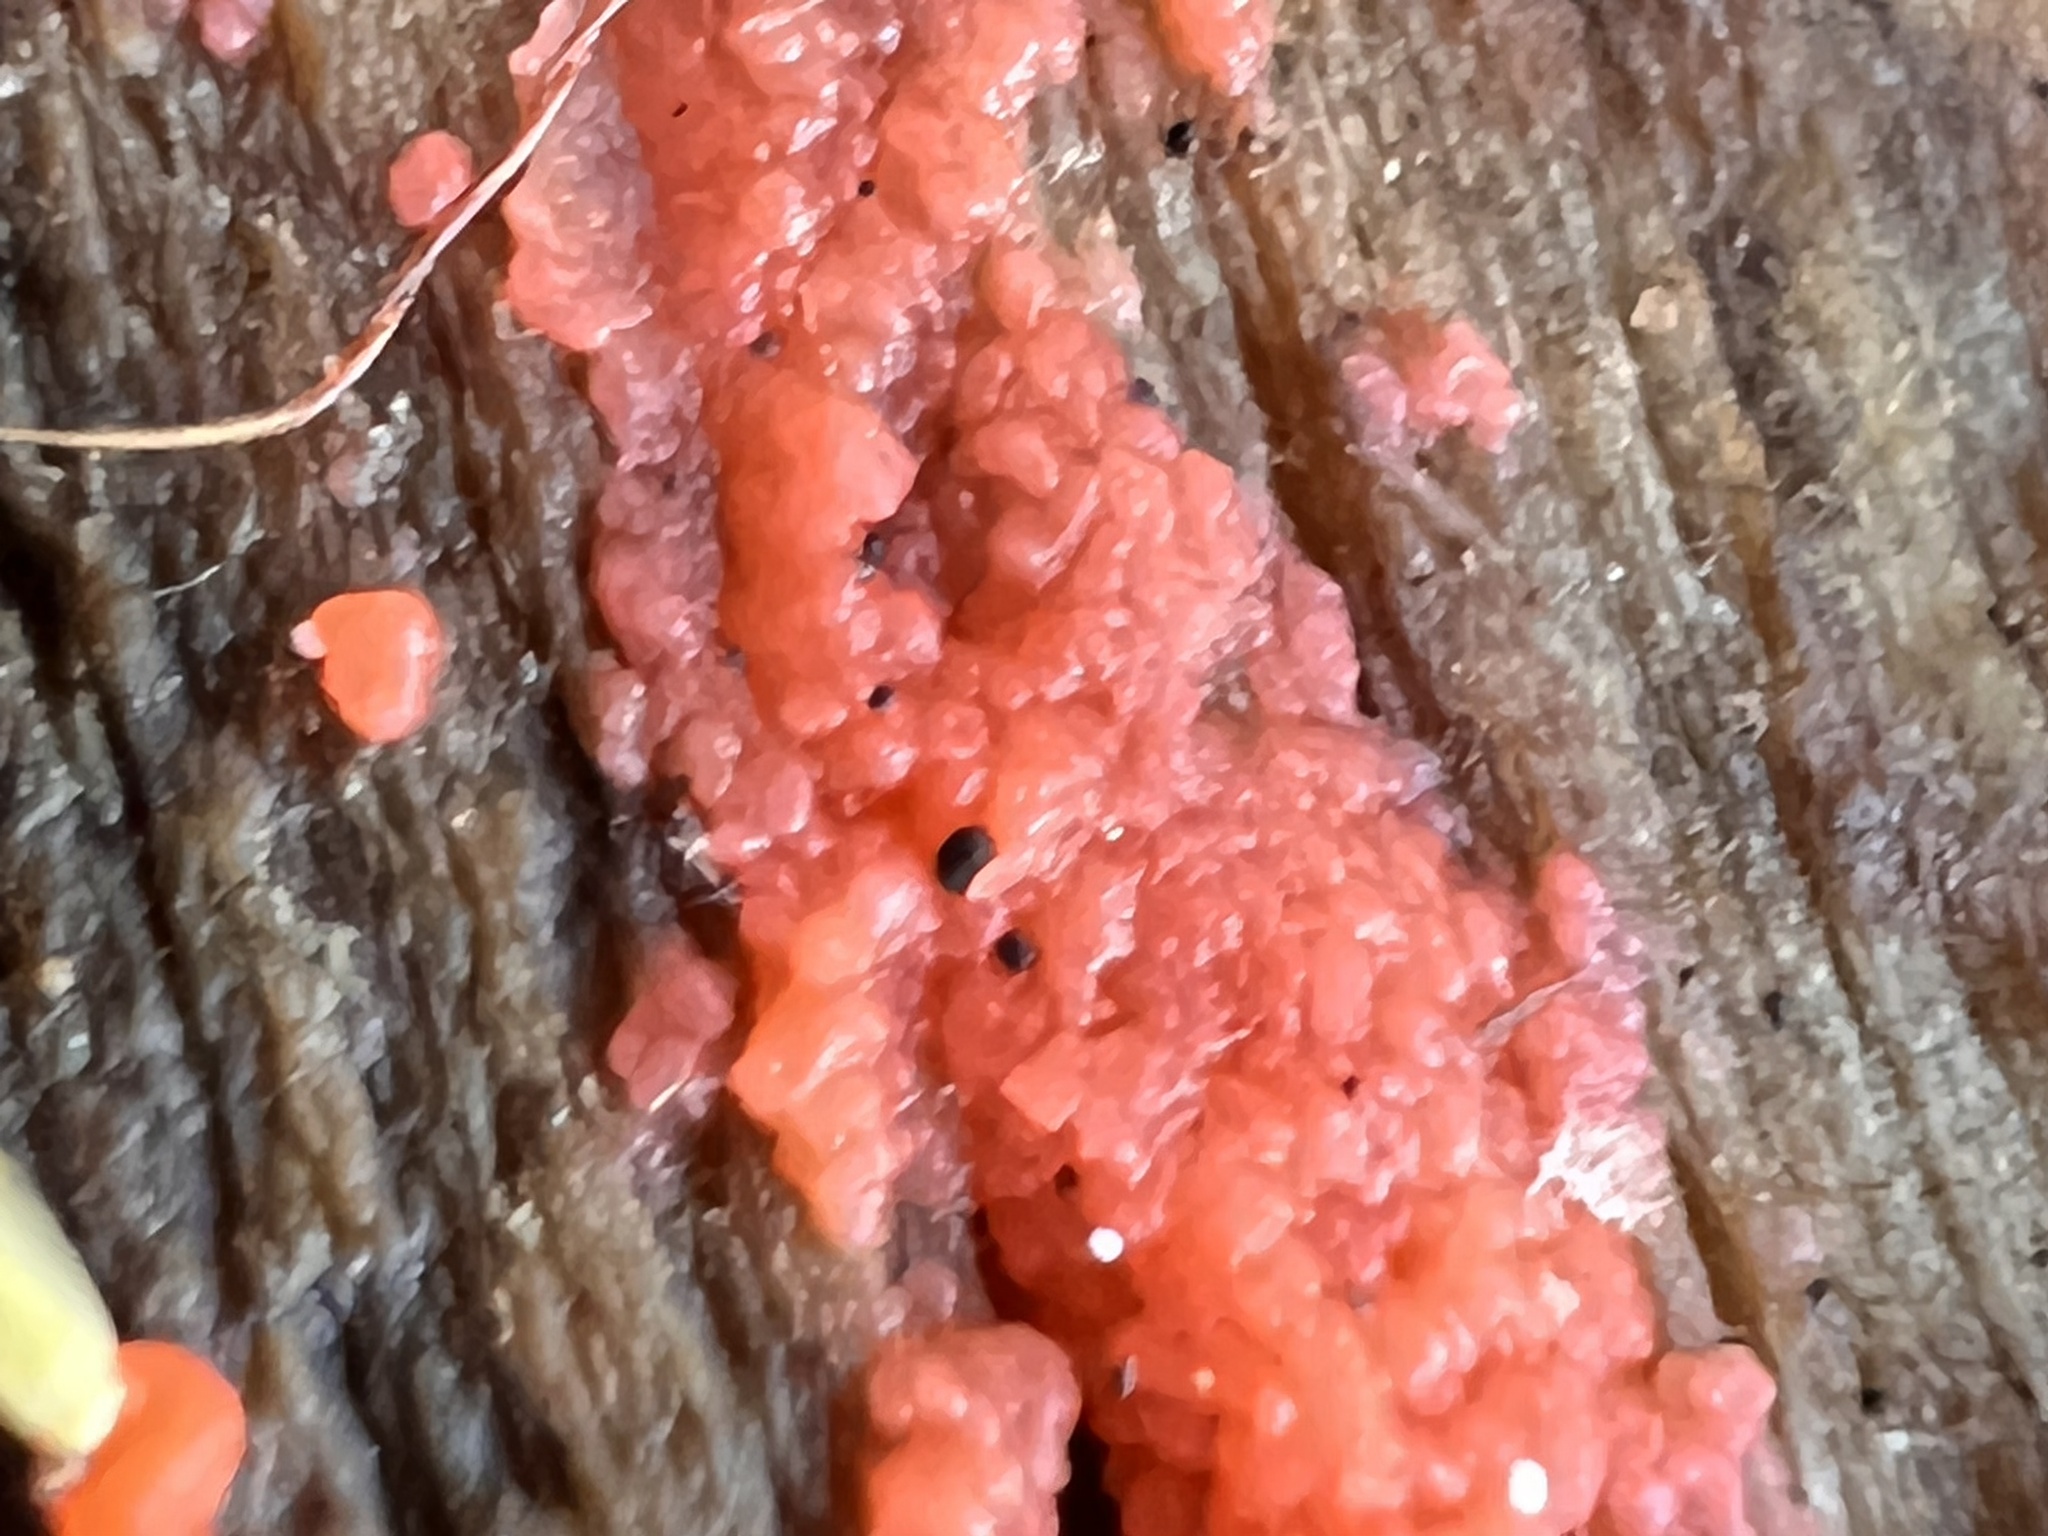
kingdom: Fungi
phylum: Basidiomycota
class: Agaricomycetes
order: Cantharellales
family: Tulasnellaceae
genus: Tulasnella
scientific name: Tulasnella aurantiaca
